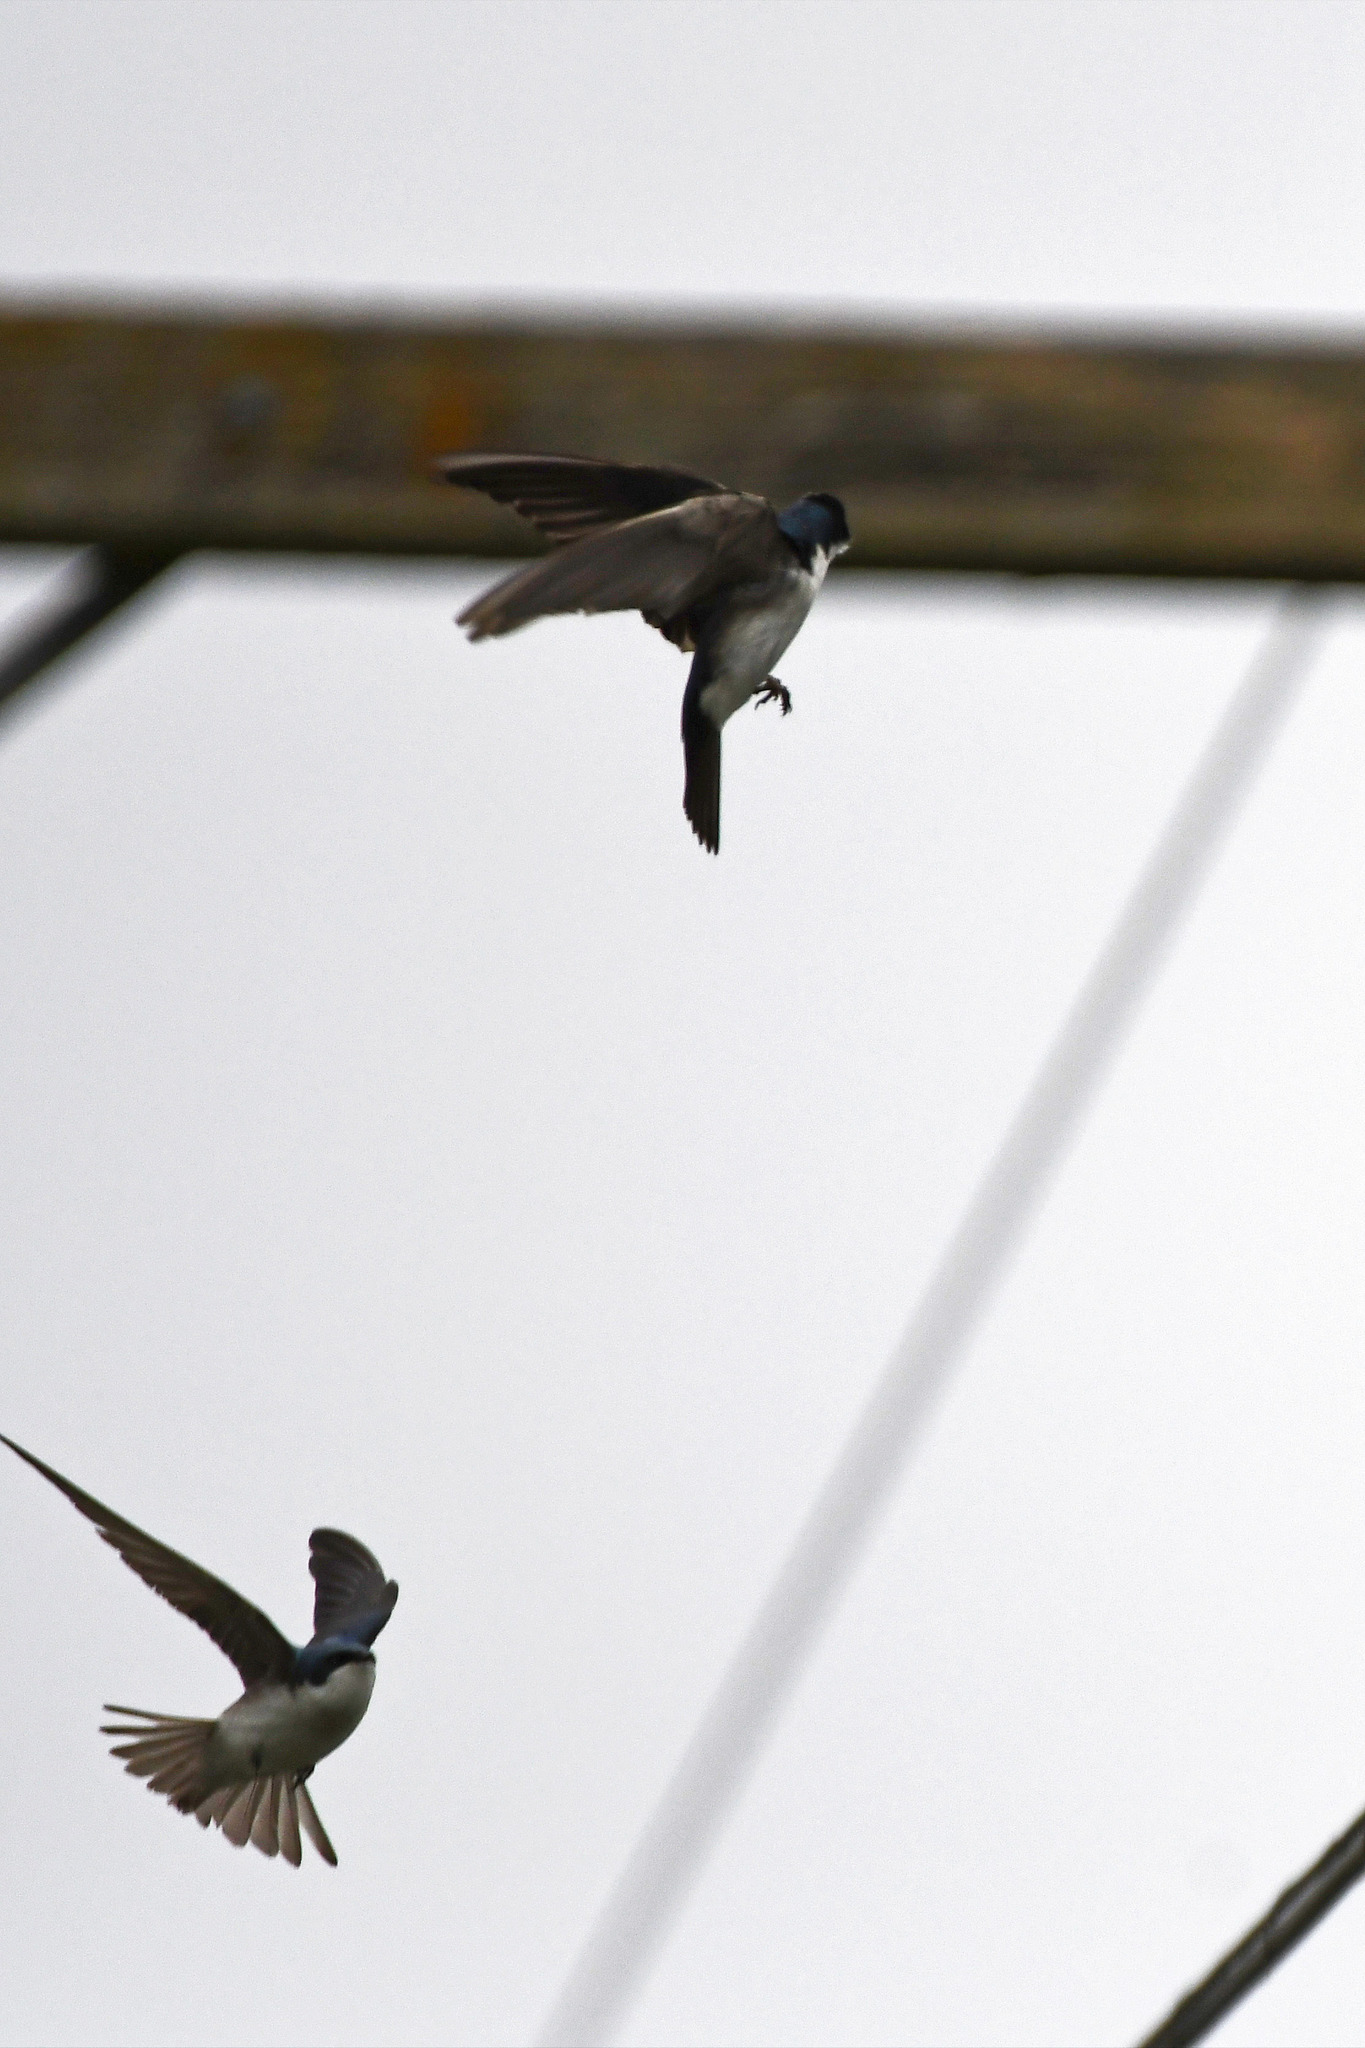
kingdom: Animalia
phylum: Chordata
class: Aves
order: Passeriformes
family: Hirundinidae
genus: Tachycineta
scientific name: Tachycineta bicolor
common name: Tree swallow
